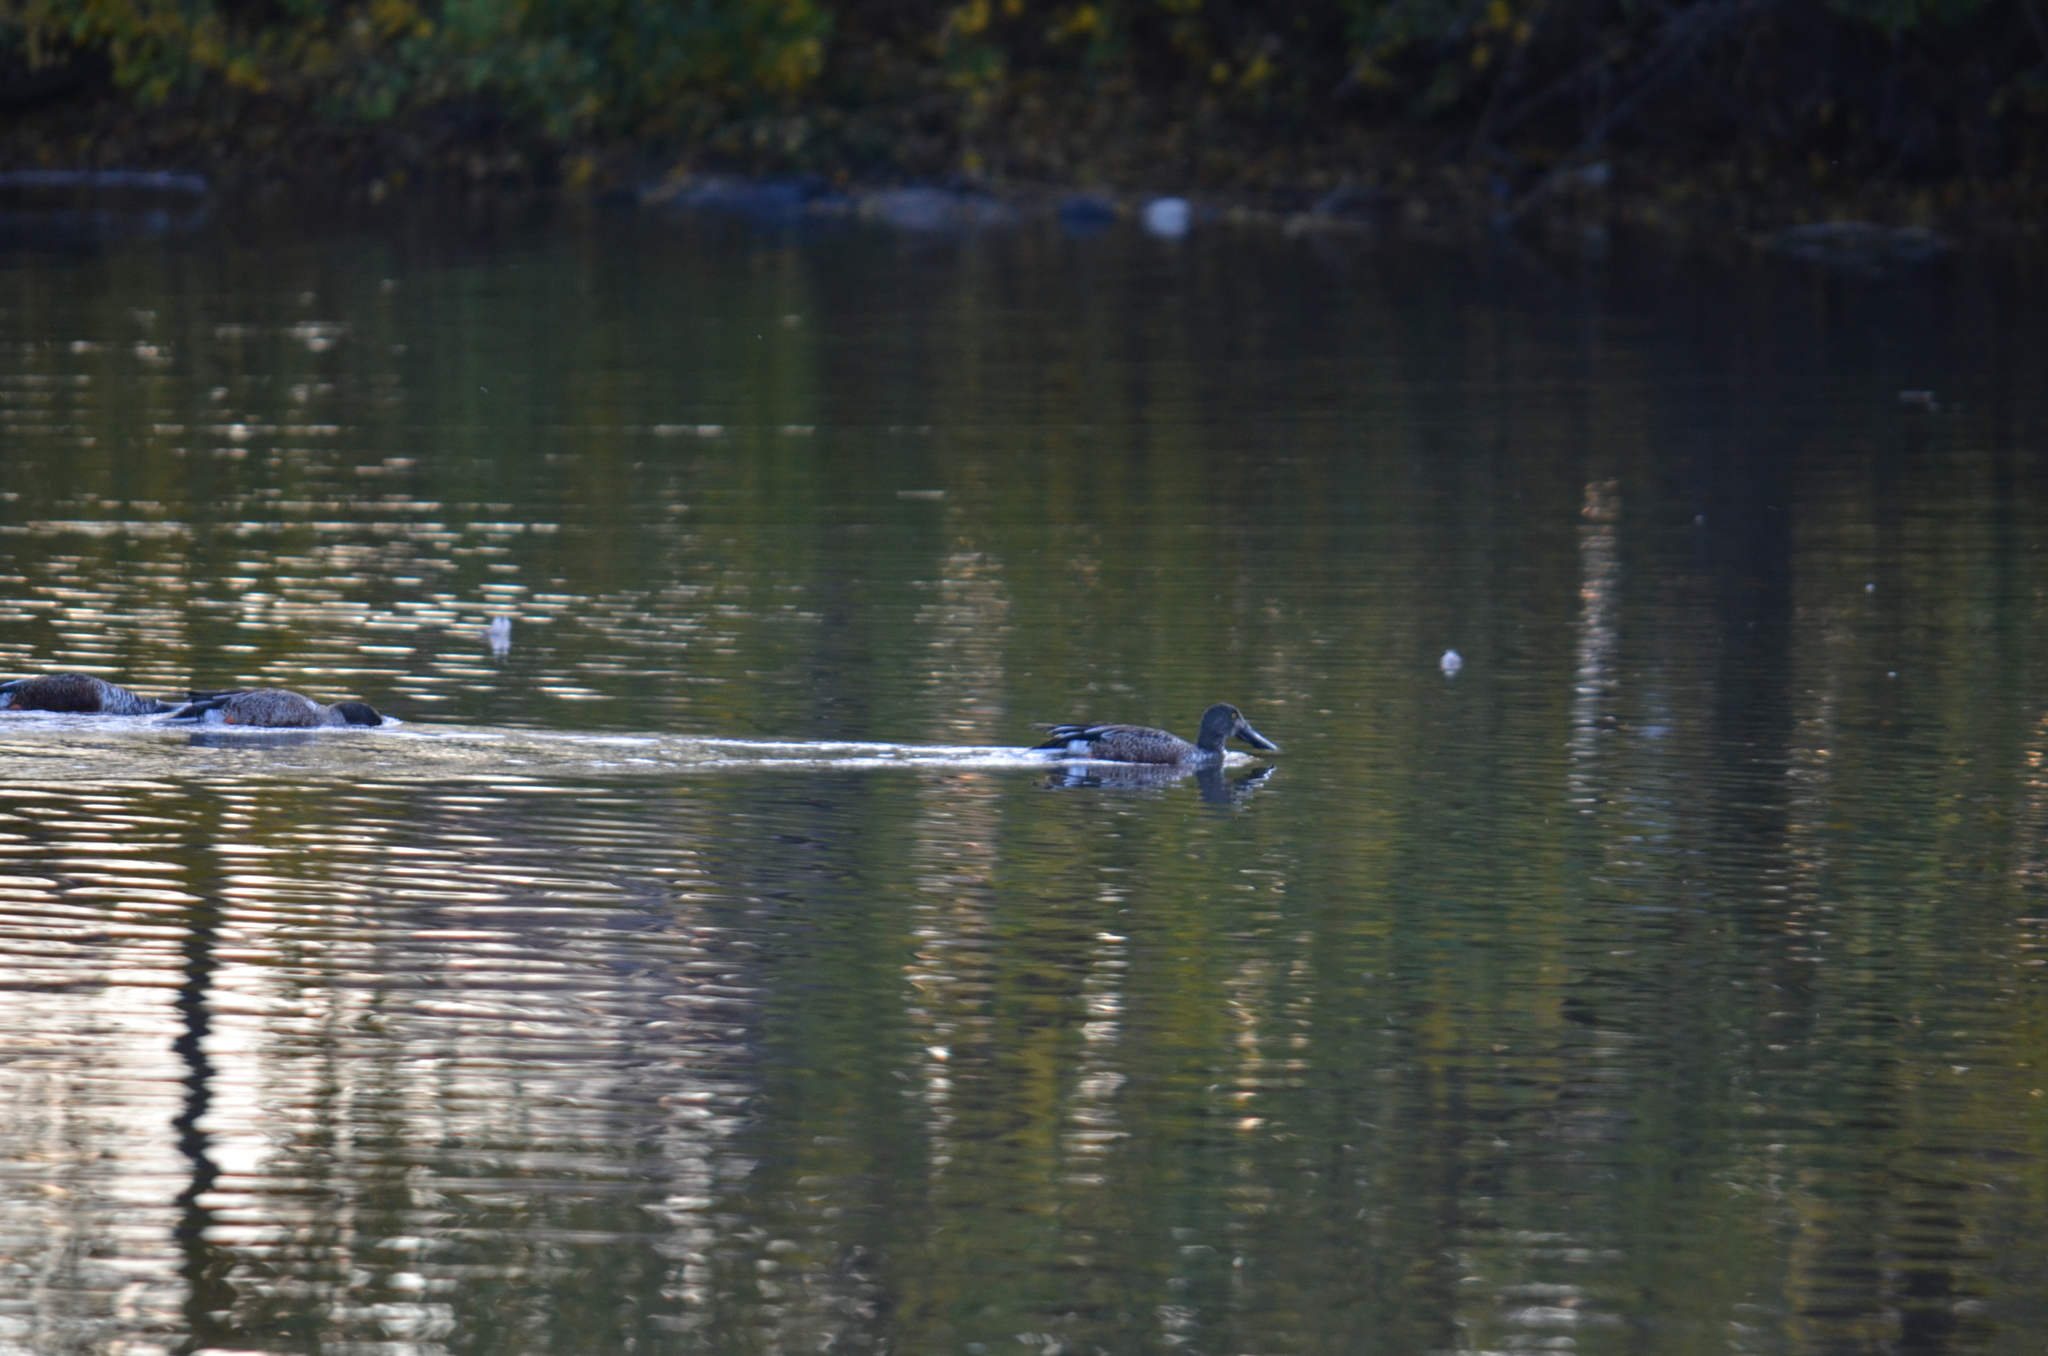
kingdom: Animalia
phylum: Chordata
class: Aves
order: Anseriformes
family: Anatidae
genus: Spatula
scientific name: Spatula clypeata
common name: Northern shoveler
